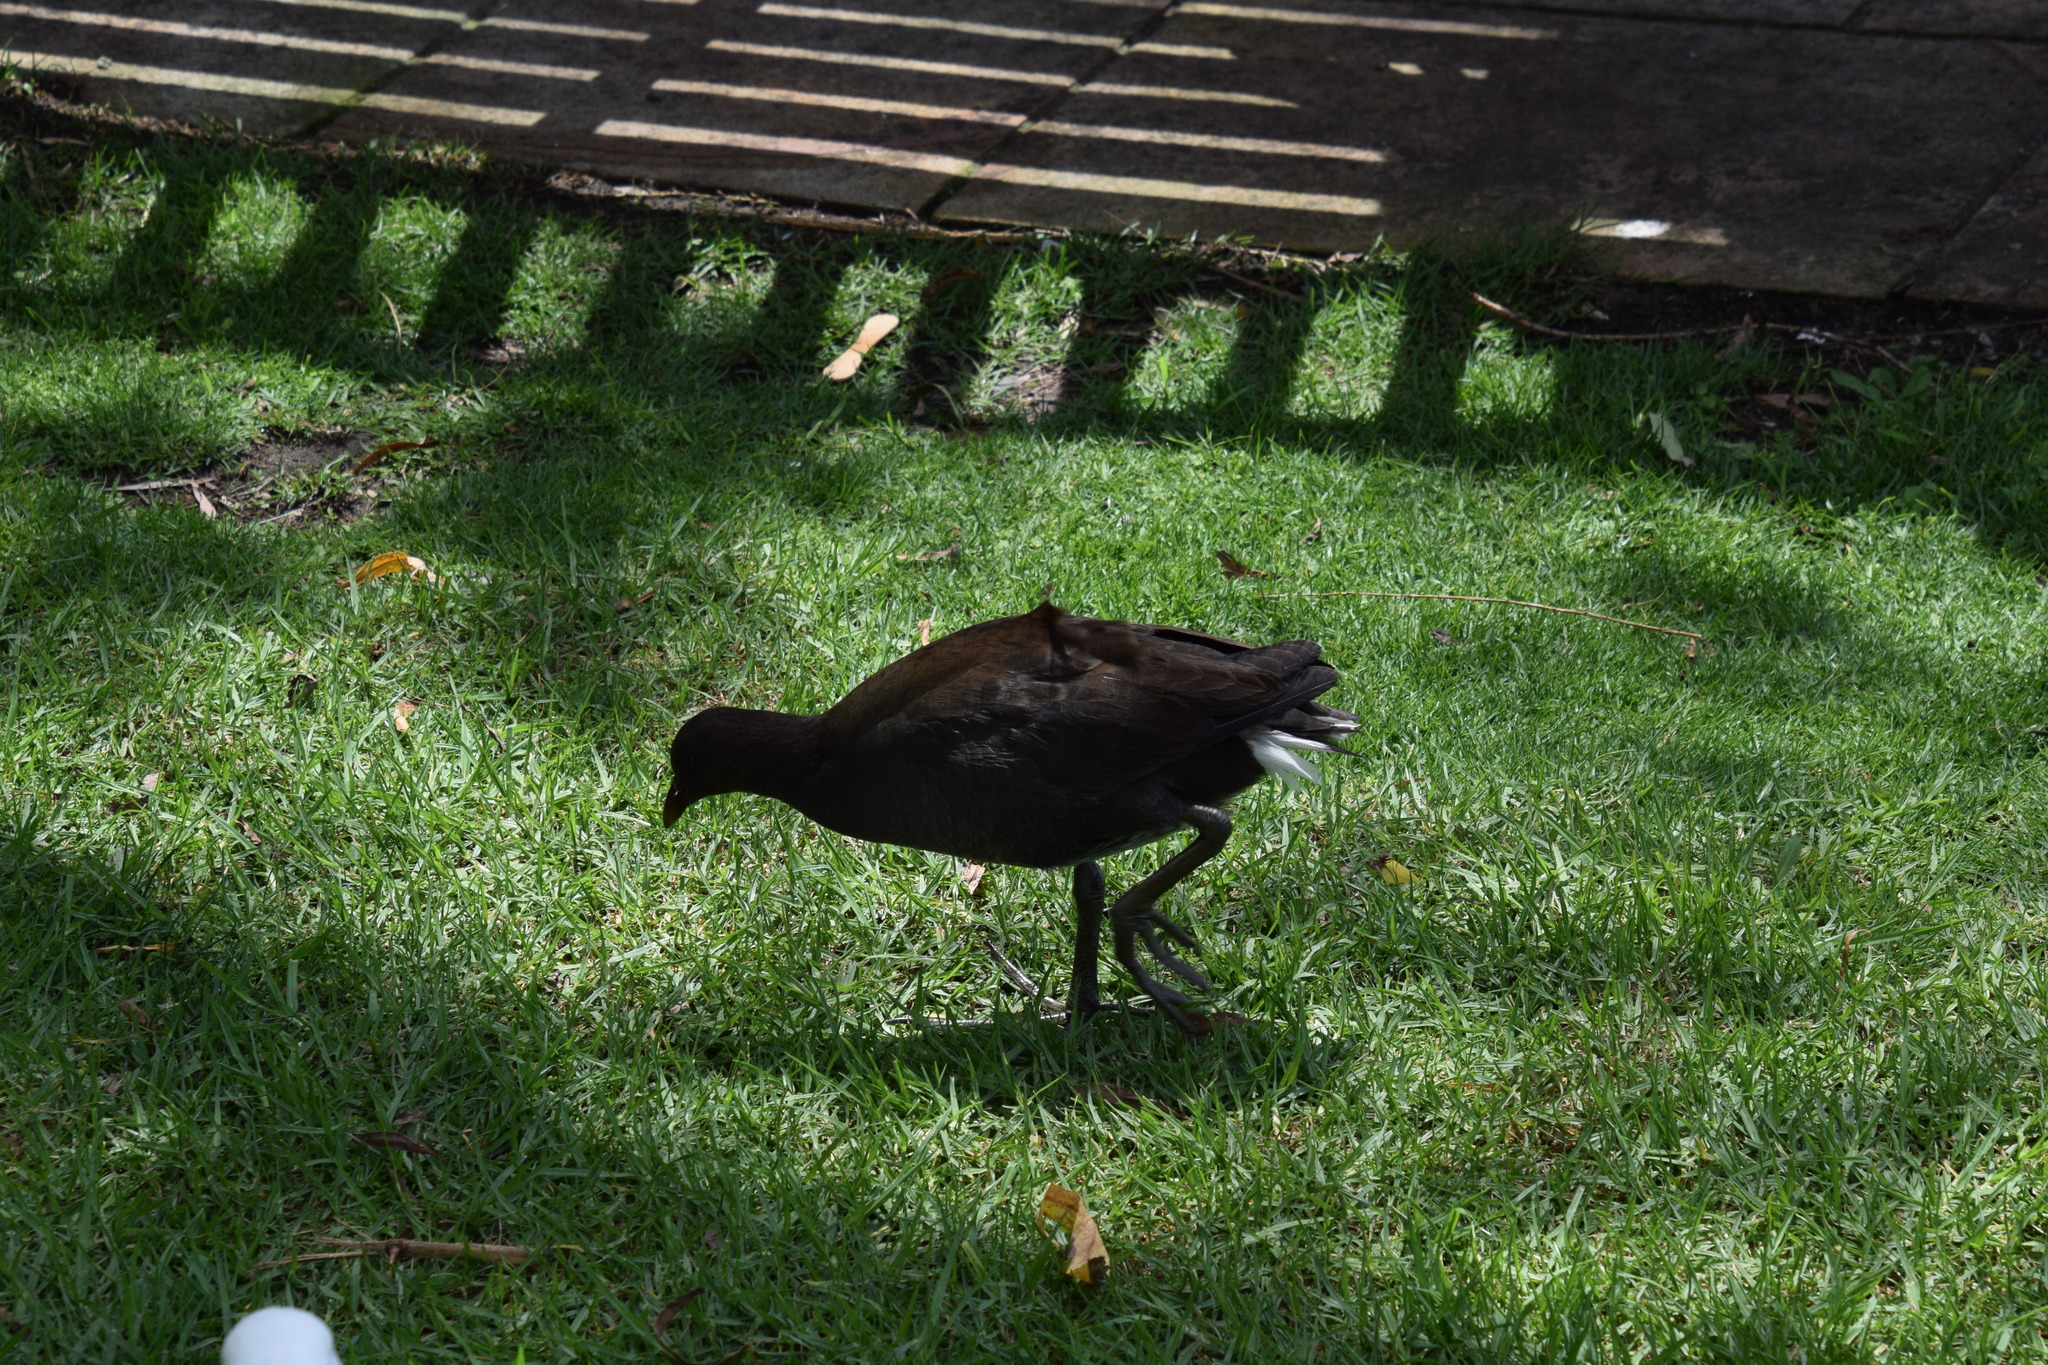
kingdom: Animalia
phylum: Chordata
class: Aves
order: Gruiformes
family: Rallidae
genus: Gallinula
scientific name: Gallinula tenebrosa
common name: Dusky moorhen
